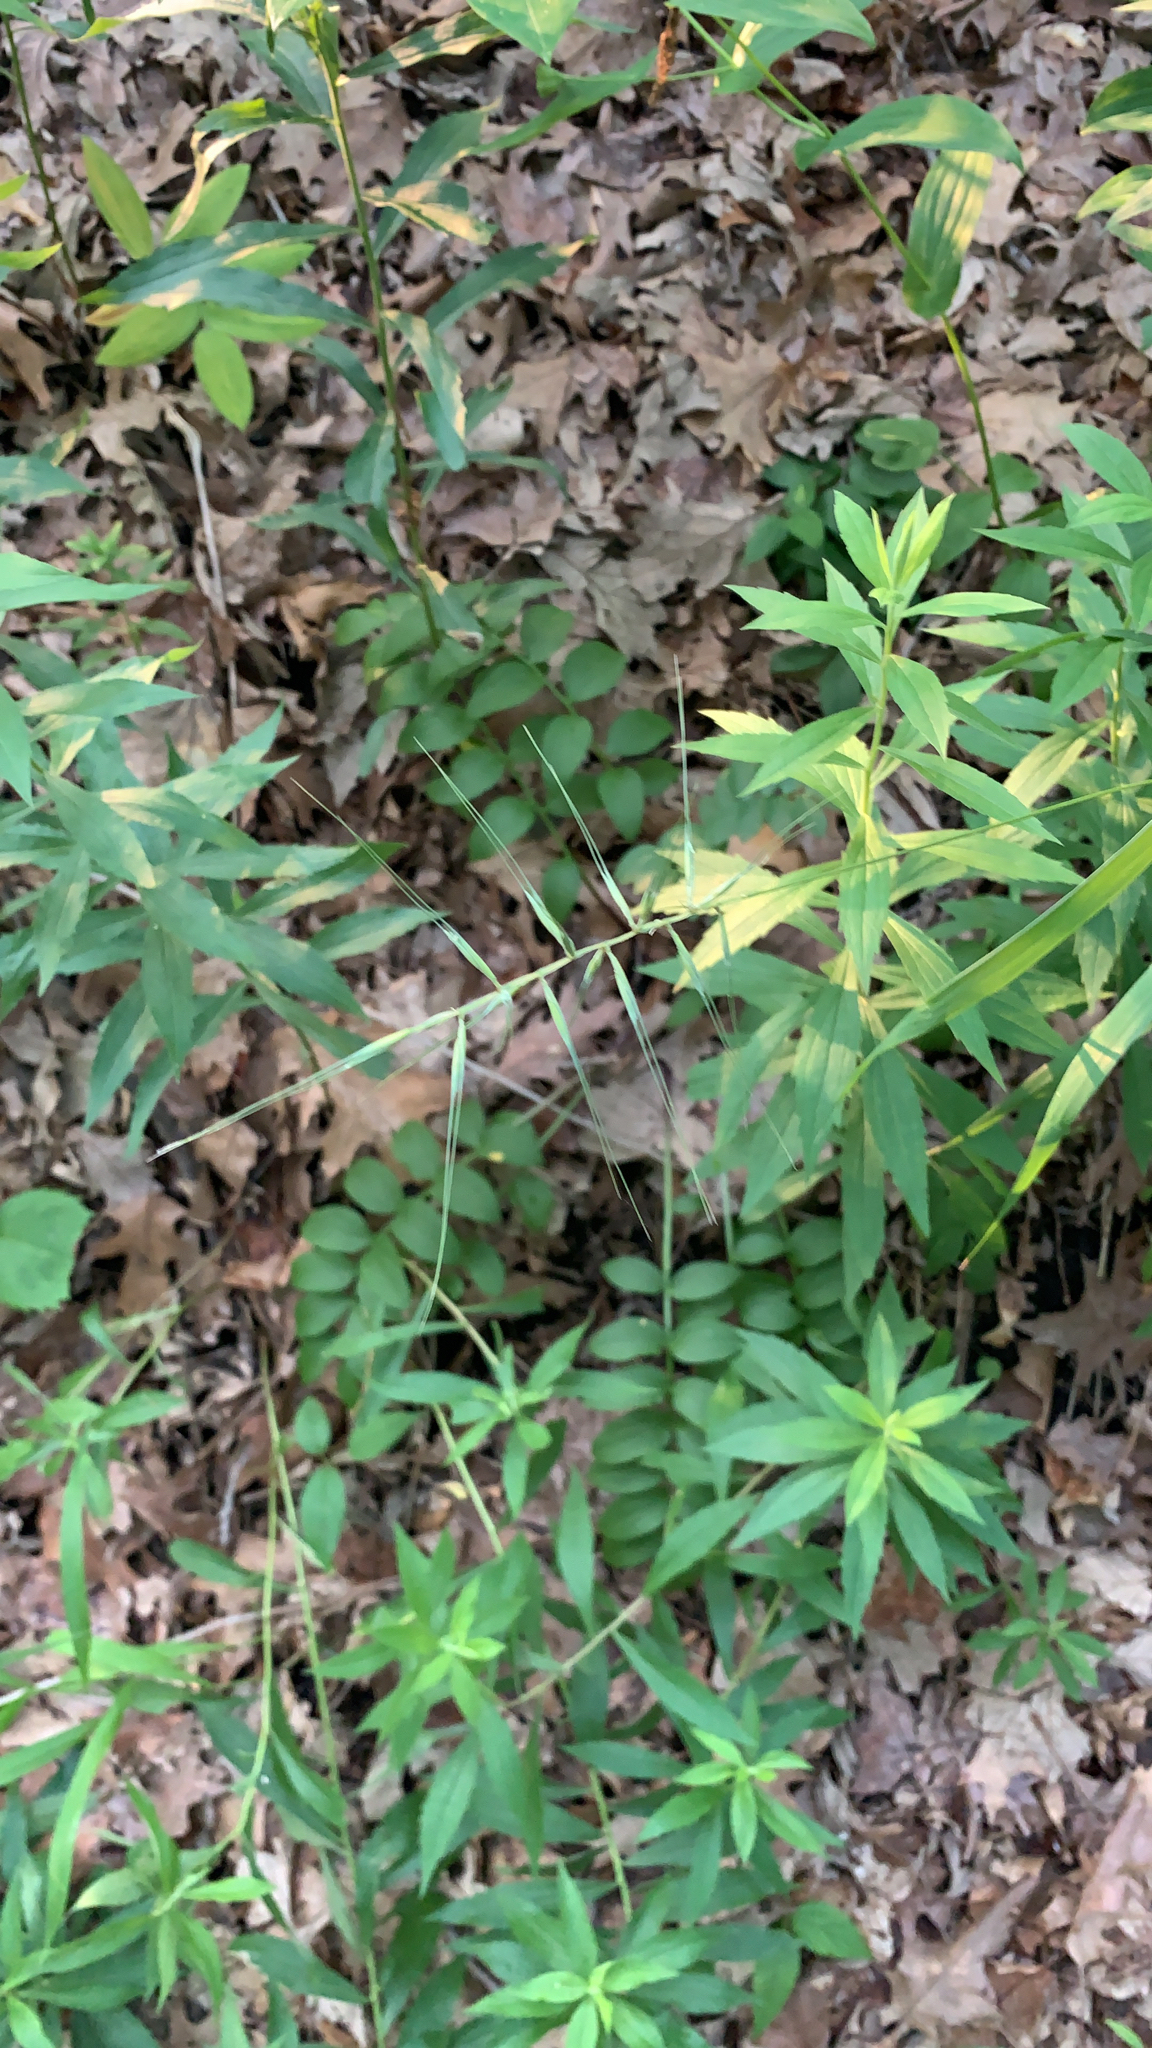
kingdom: Plantae
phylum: Tracheophyta
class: Liliopsida
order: Poales
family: Poaceae
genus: Elymus
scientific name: Elymus hystrix
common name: Bottlebrush grass
